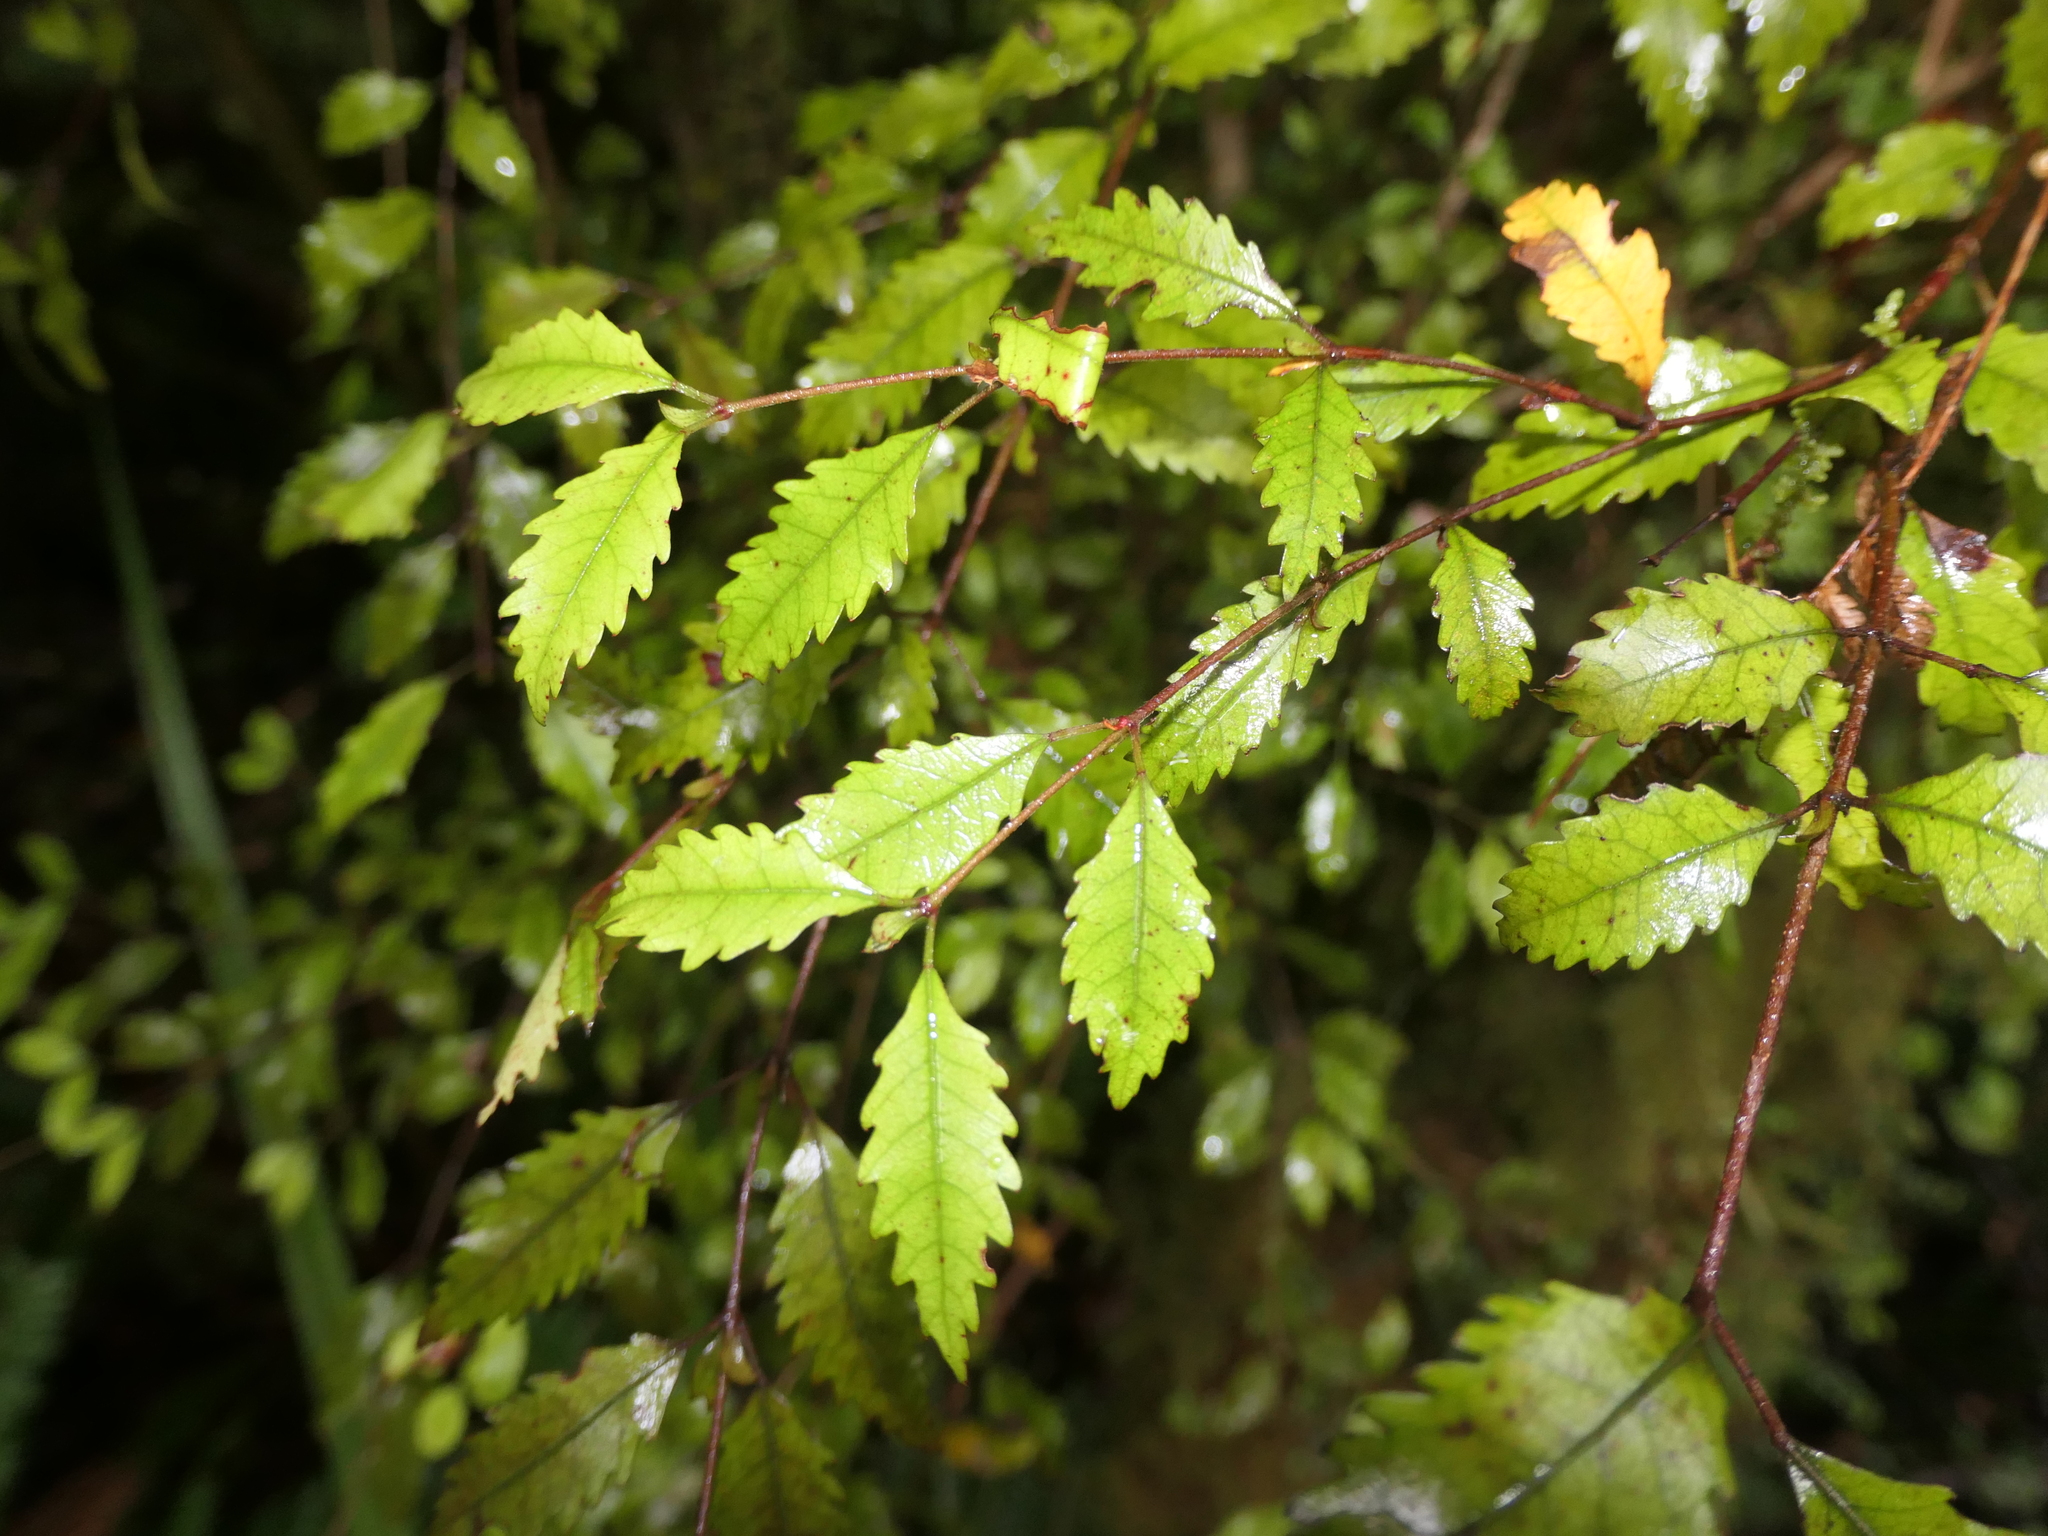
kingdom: Plantae
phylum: Tracheophyta
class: Magnoliopsida
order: Oxalidales
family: Cunoniaceae
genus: Pterophylla
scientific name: Pterophylla racemosa
